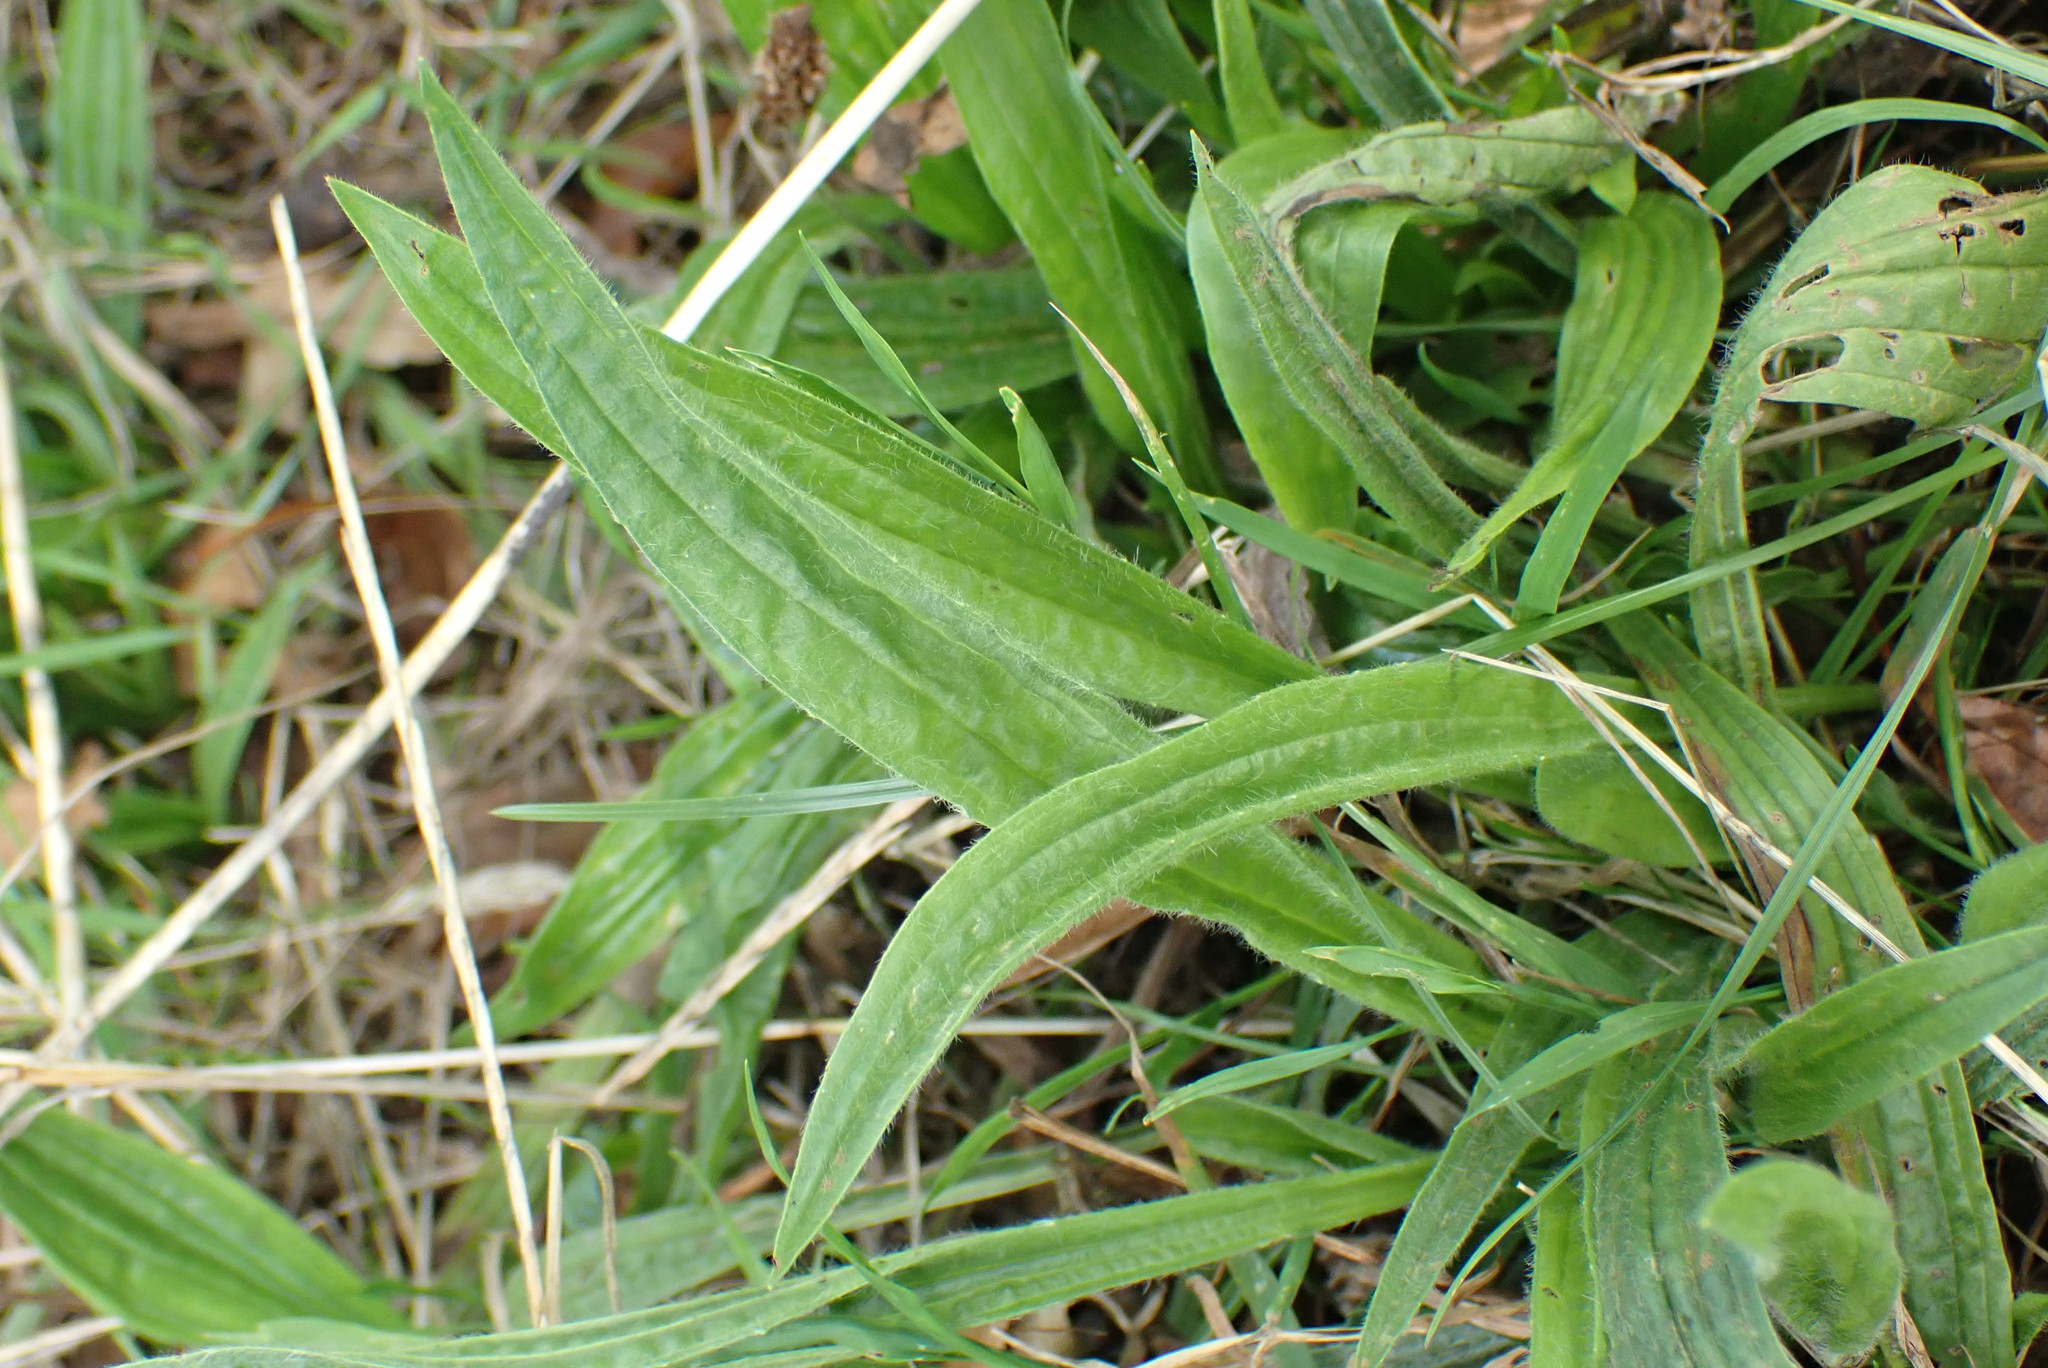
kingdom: Plantae
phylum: Tracheophyta
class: Magnoliopsida
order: Lamiales
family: Plantaginaceae
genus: Plantago
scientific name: Plantago lanceolata
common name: Ribwort plantain
